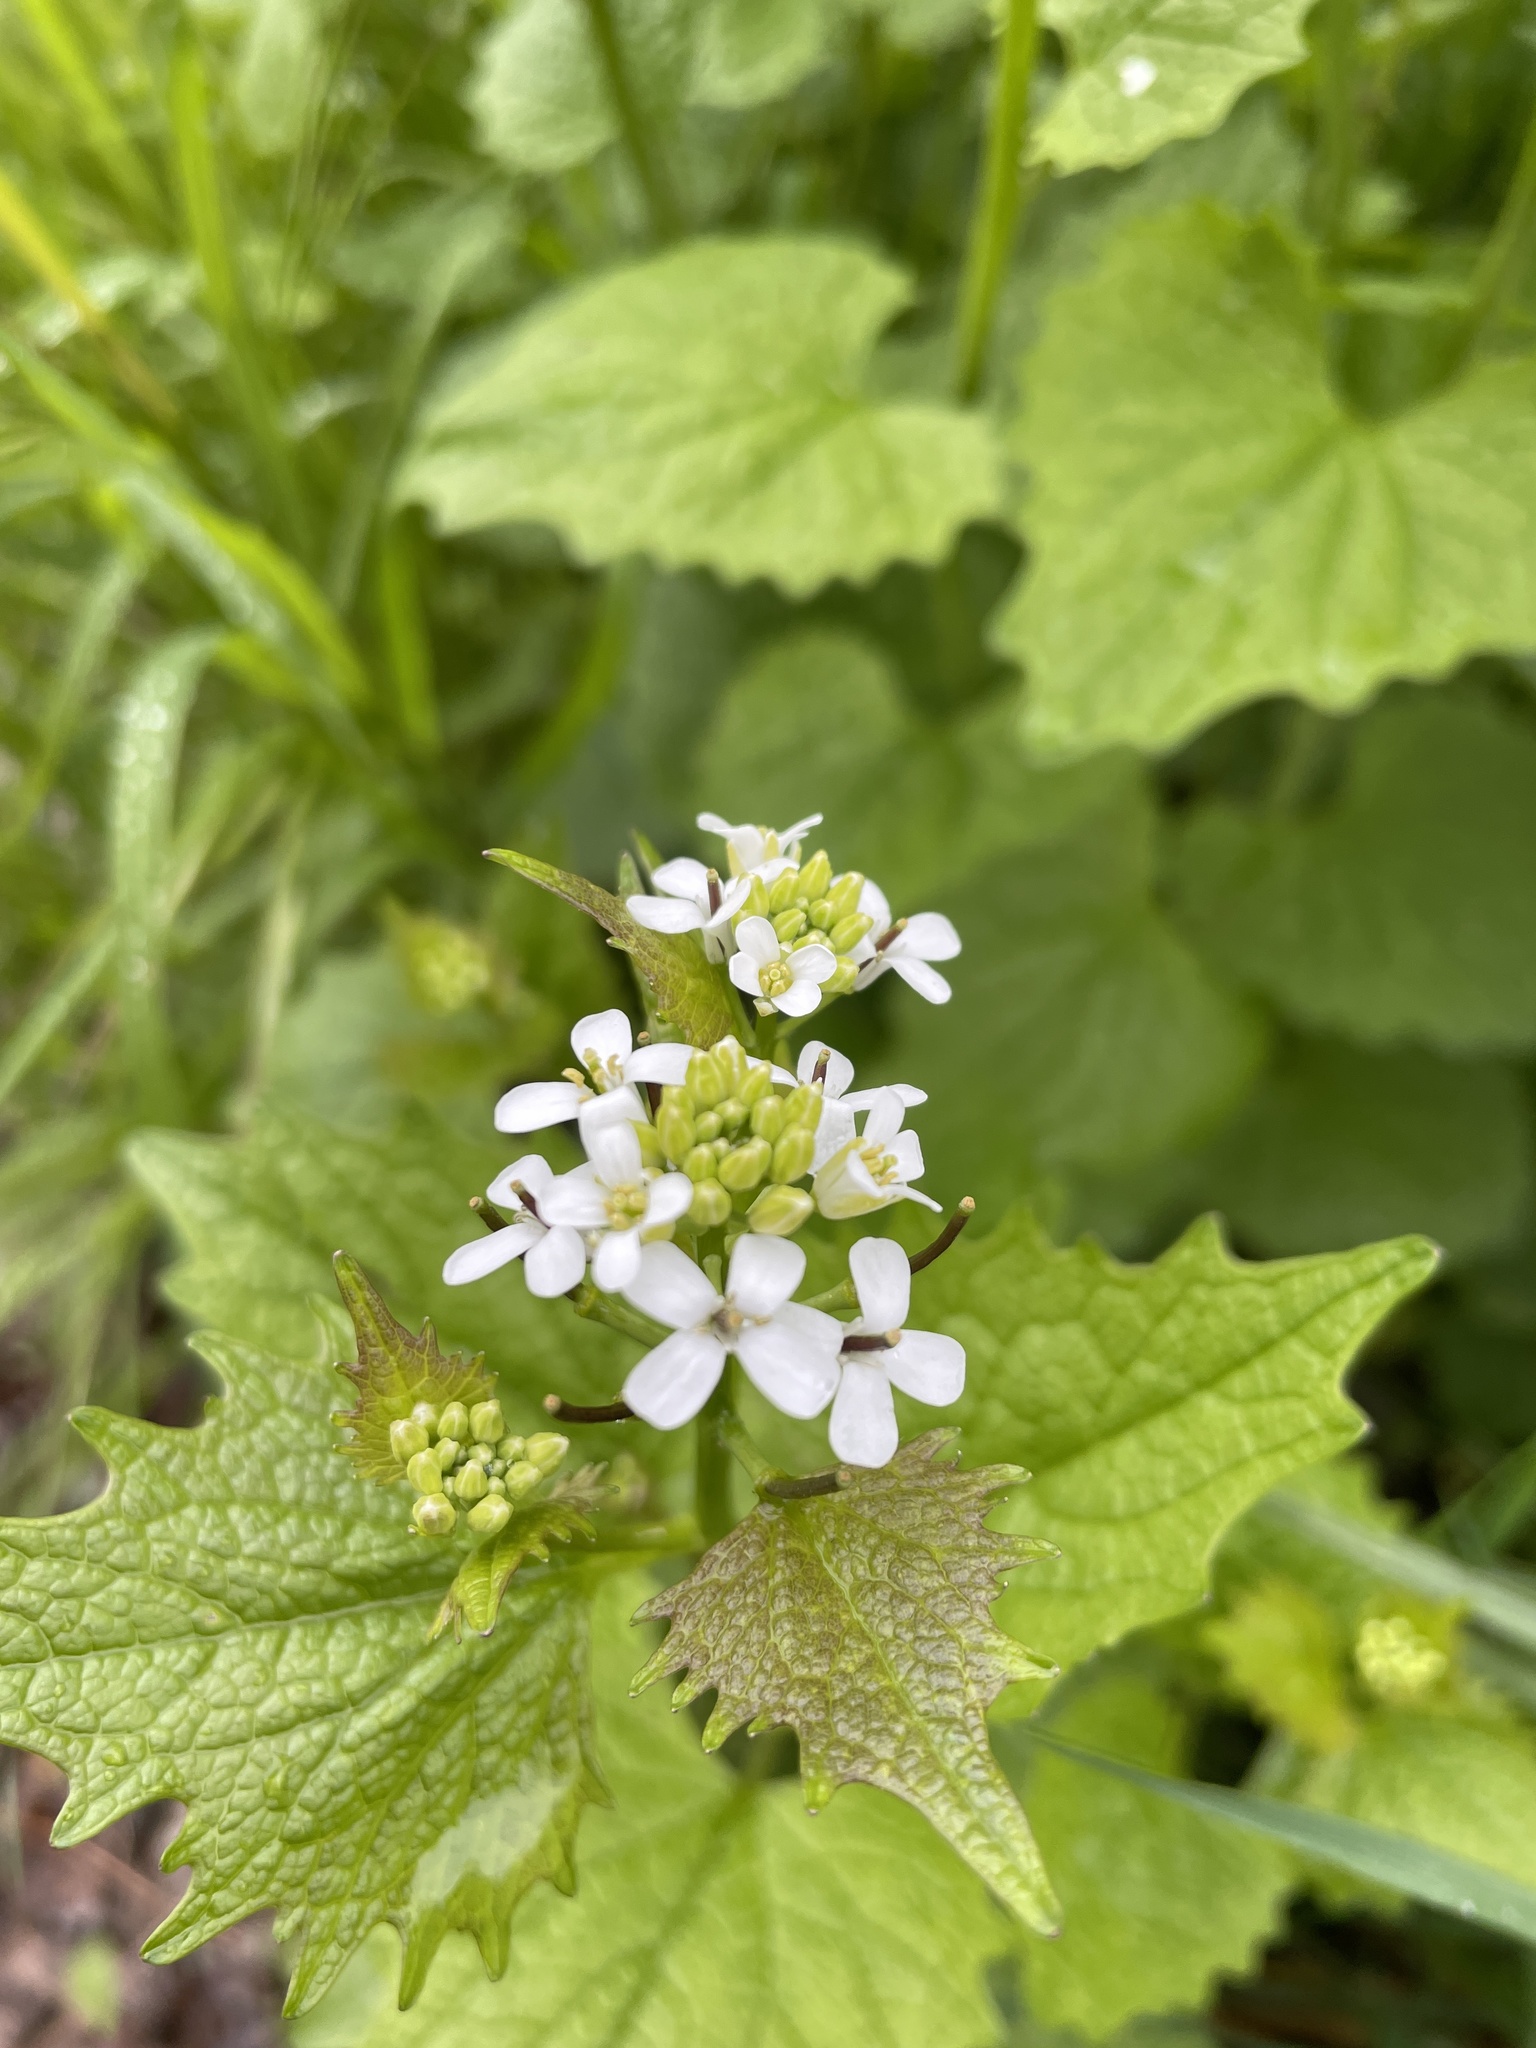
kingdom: Plantae
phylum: Tracheophyta
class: Magnoliopsida
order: Brassicales
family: Brassicaceae
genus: Alliaria
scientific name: Alliaria petiolata
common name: Garlic mustard
